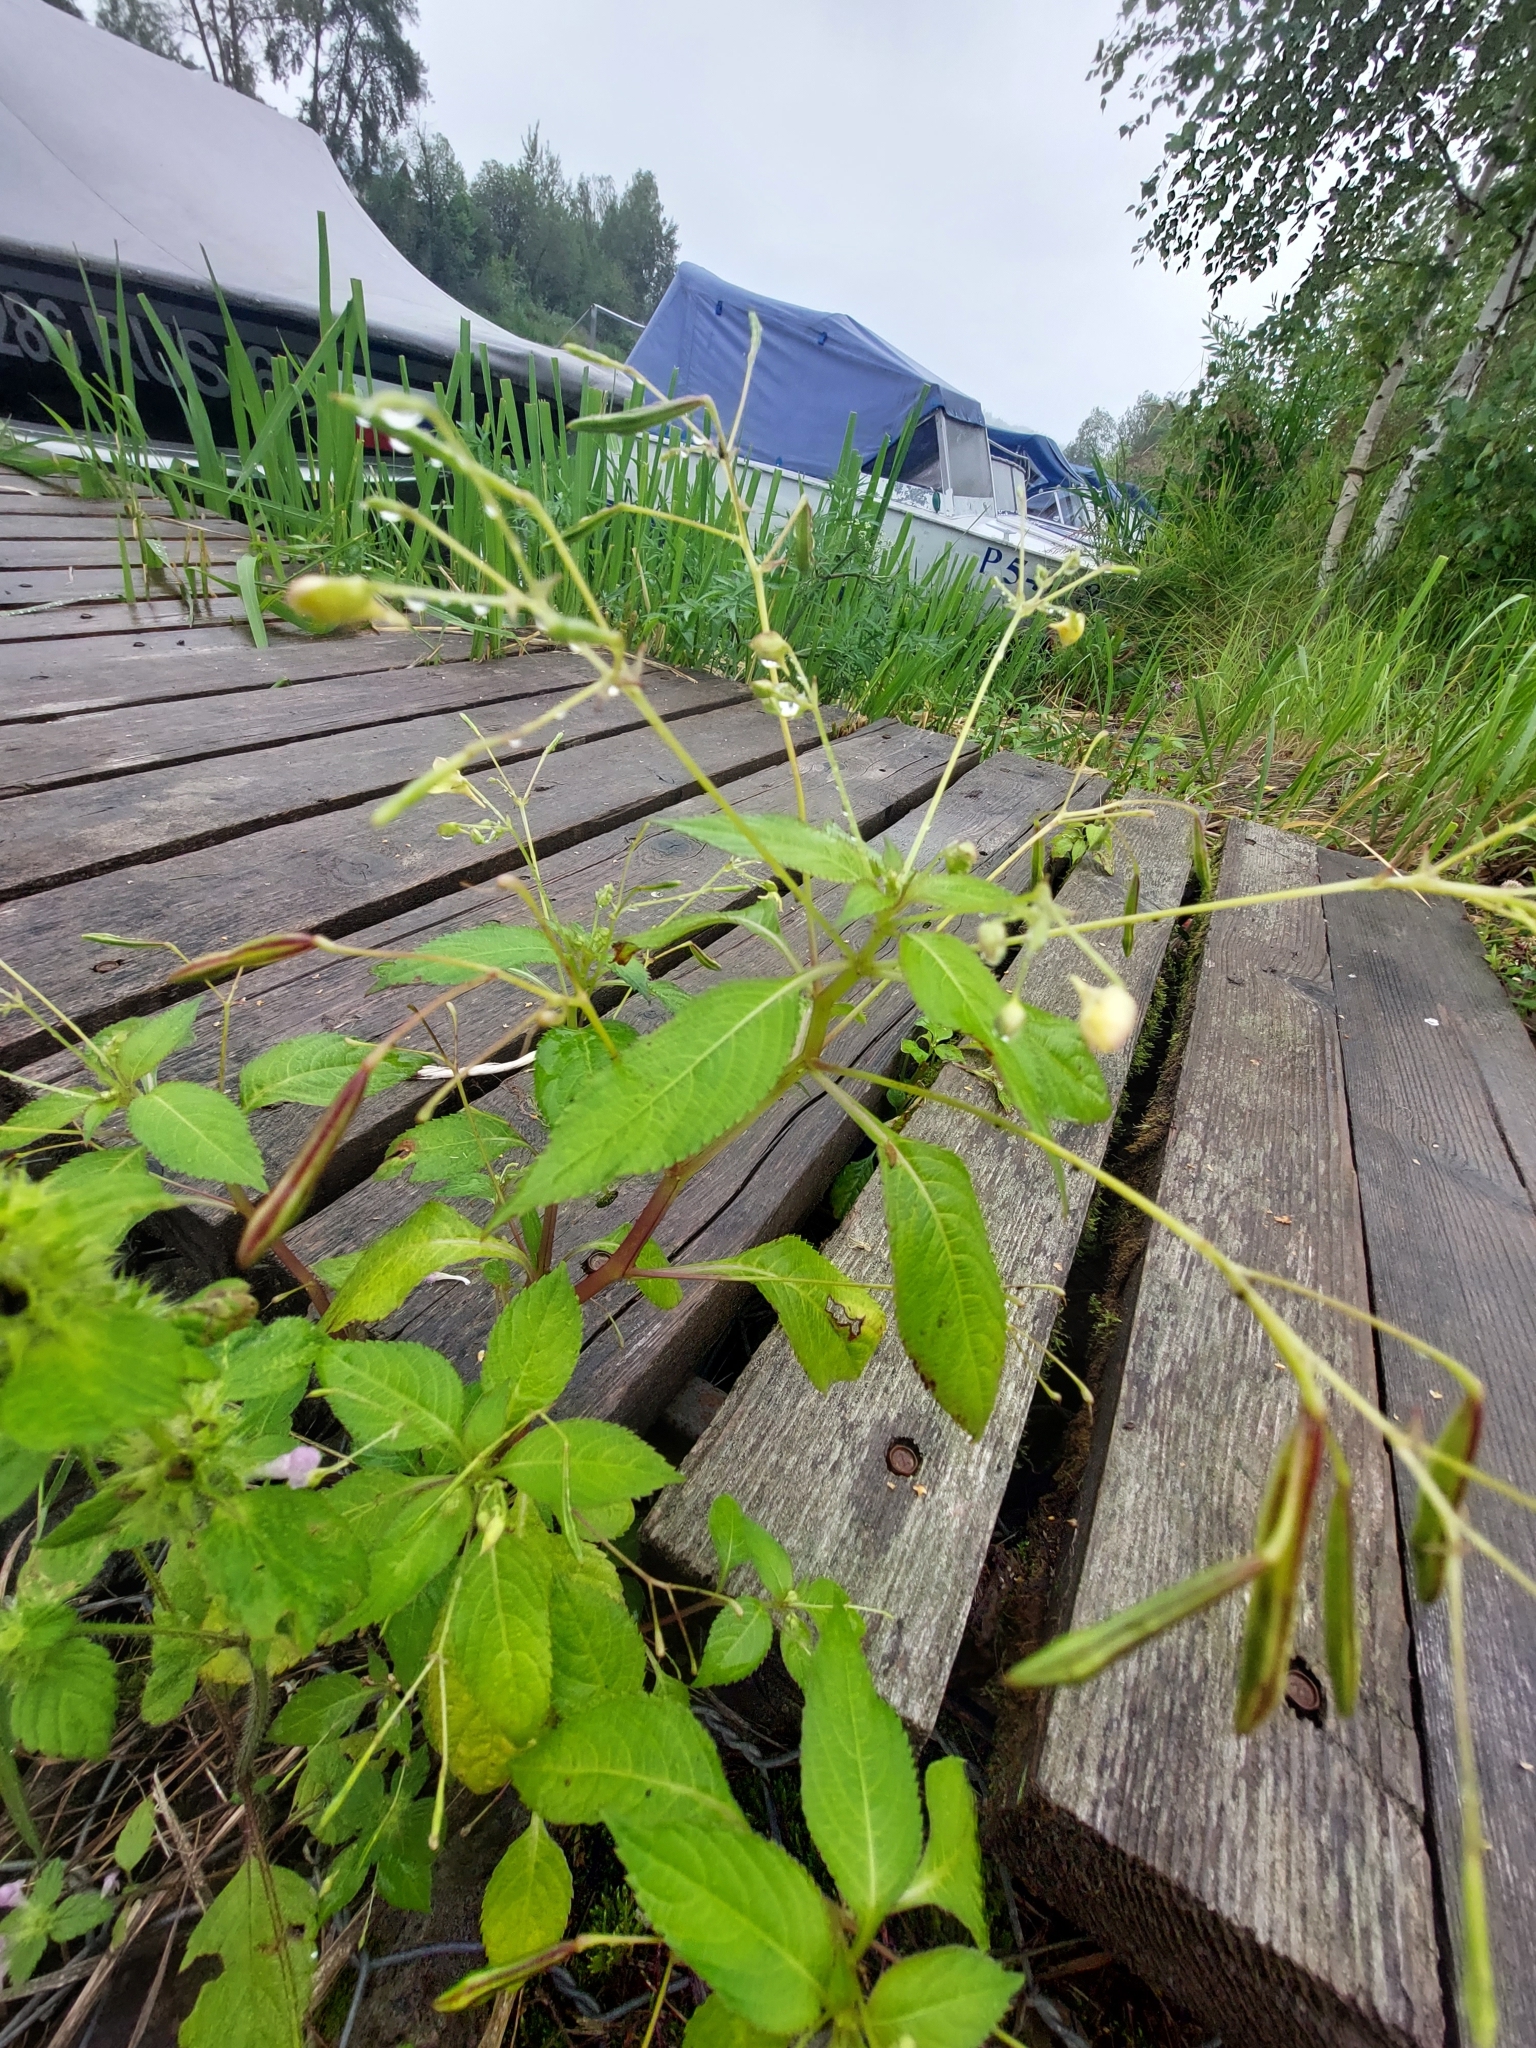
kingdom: Plantae
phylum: Tracheophyta
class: Magnoliopsida
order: Ericales
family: Balsaminaceae
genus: Impatiens
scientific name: Impatiens parviflora
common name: Small balsam
